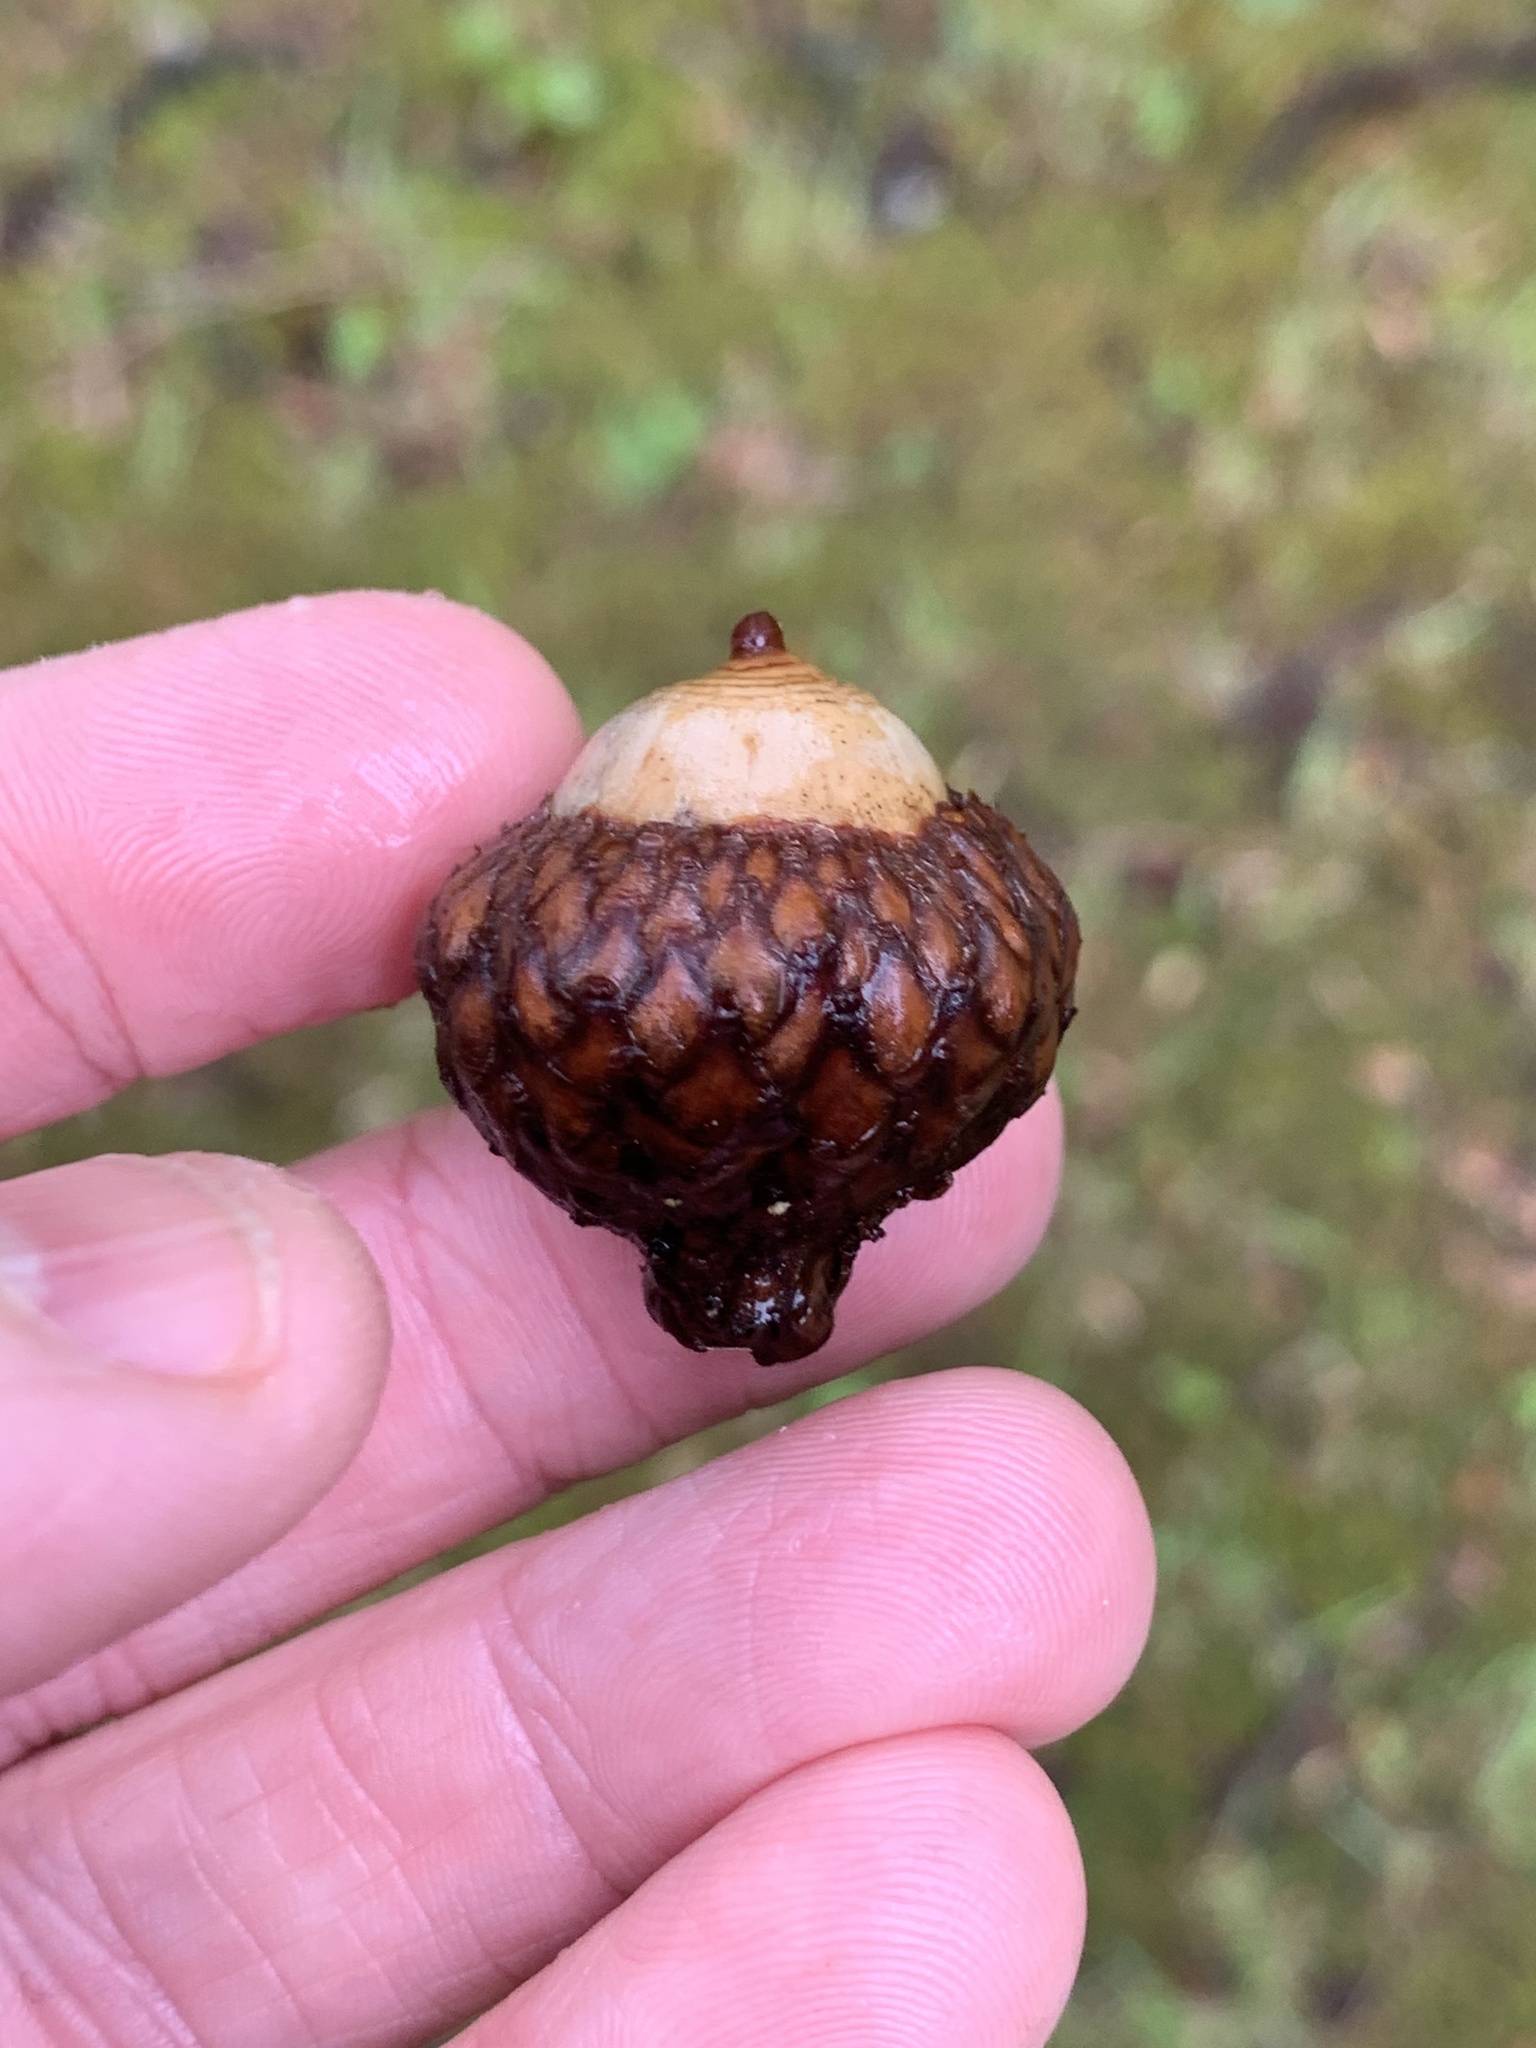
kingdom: Plantae
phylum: Tracheophyta
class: Magnoliopsida
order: Fagales
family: Fagaceae
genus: Quercus
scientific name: Quercus coccinea
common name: Scarlet oak
